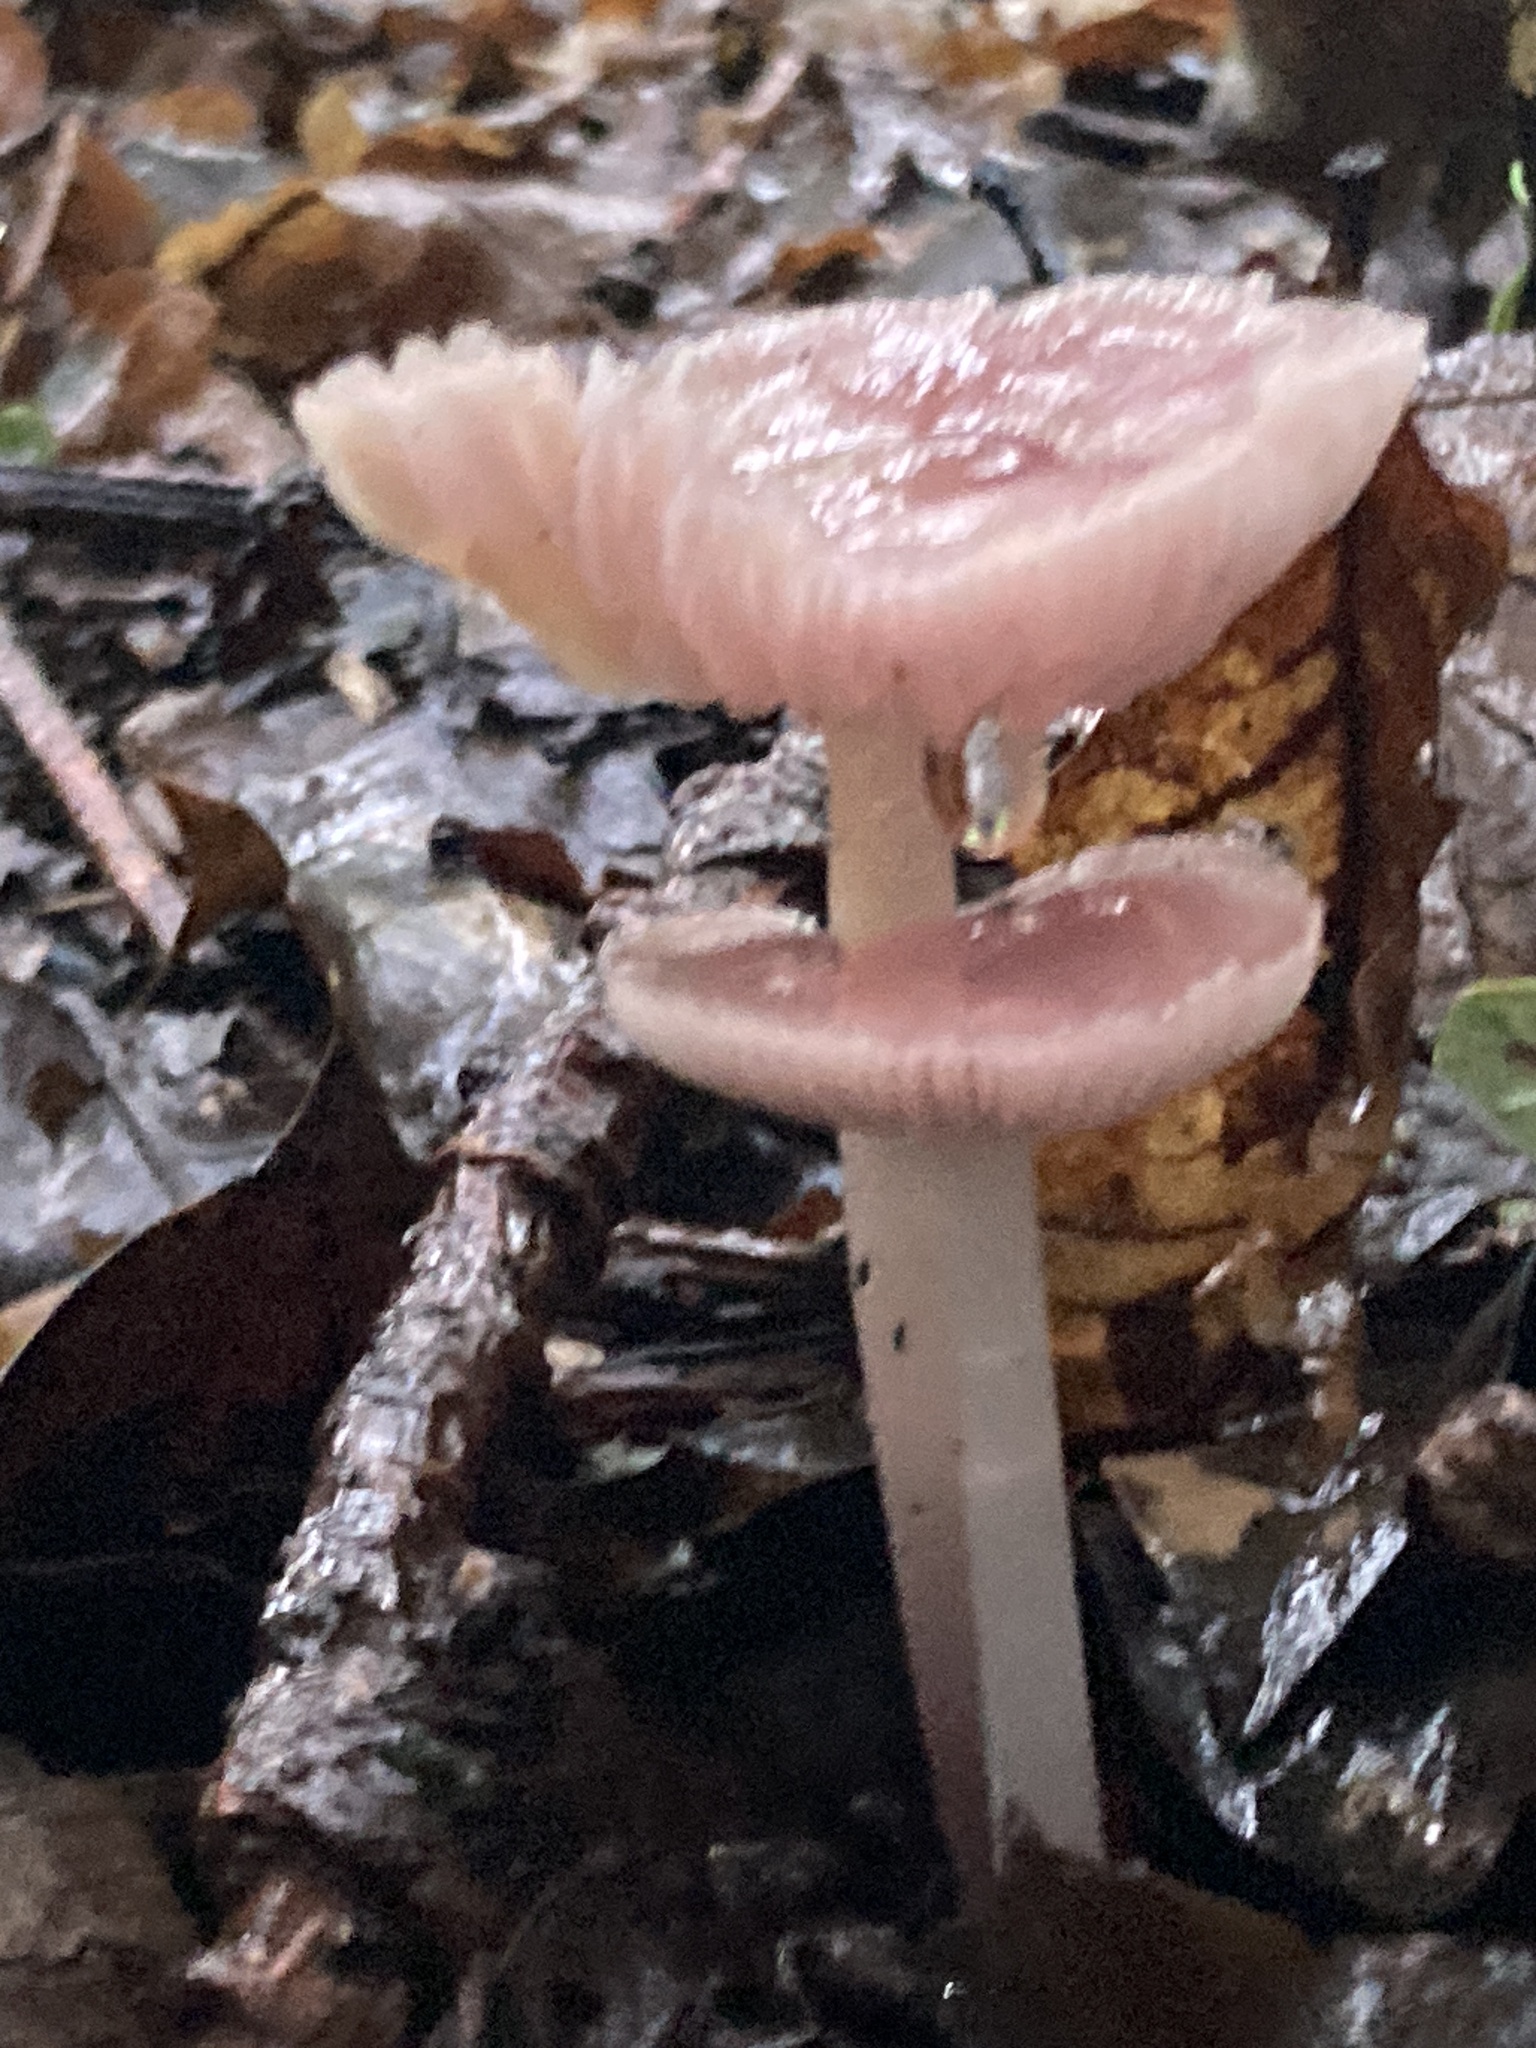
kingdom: Fungi
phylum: Basidiomycota
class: Agaricomycetes
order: Agaricales
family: Mycenaceae
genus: Mycena
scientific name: Mycena rosea
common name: Rosy bonnet
